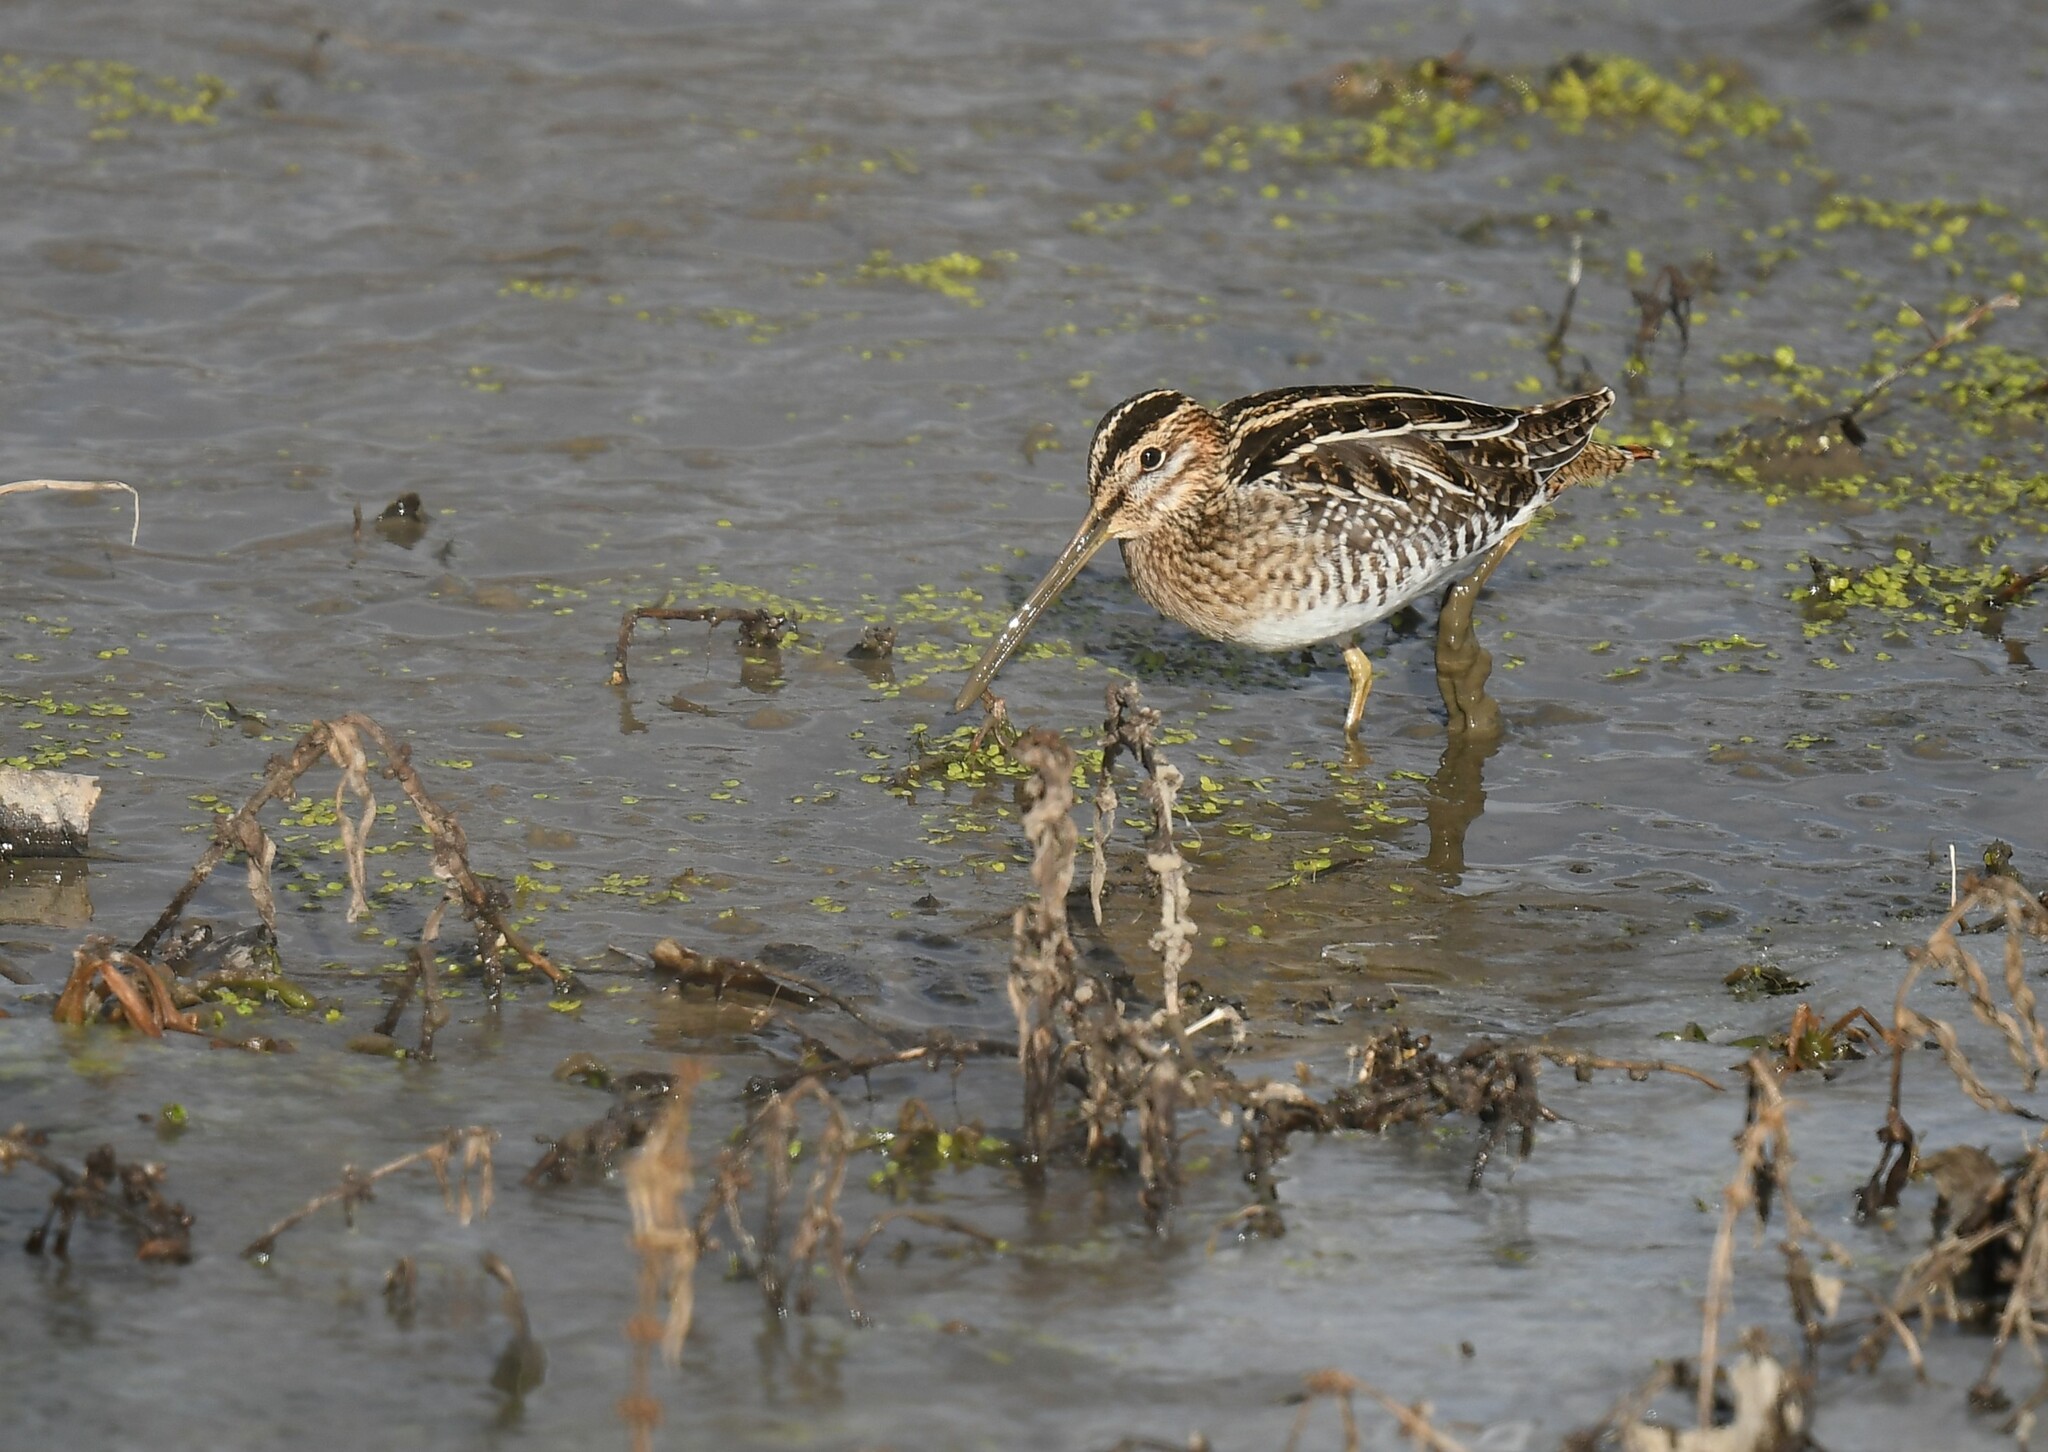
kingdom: Animalia
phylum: Chordata
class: Aves
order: Charadriiformes
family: Scolopacidae
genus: Gallinago
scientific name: Gallinago delicata
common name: Wilson's snipe
